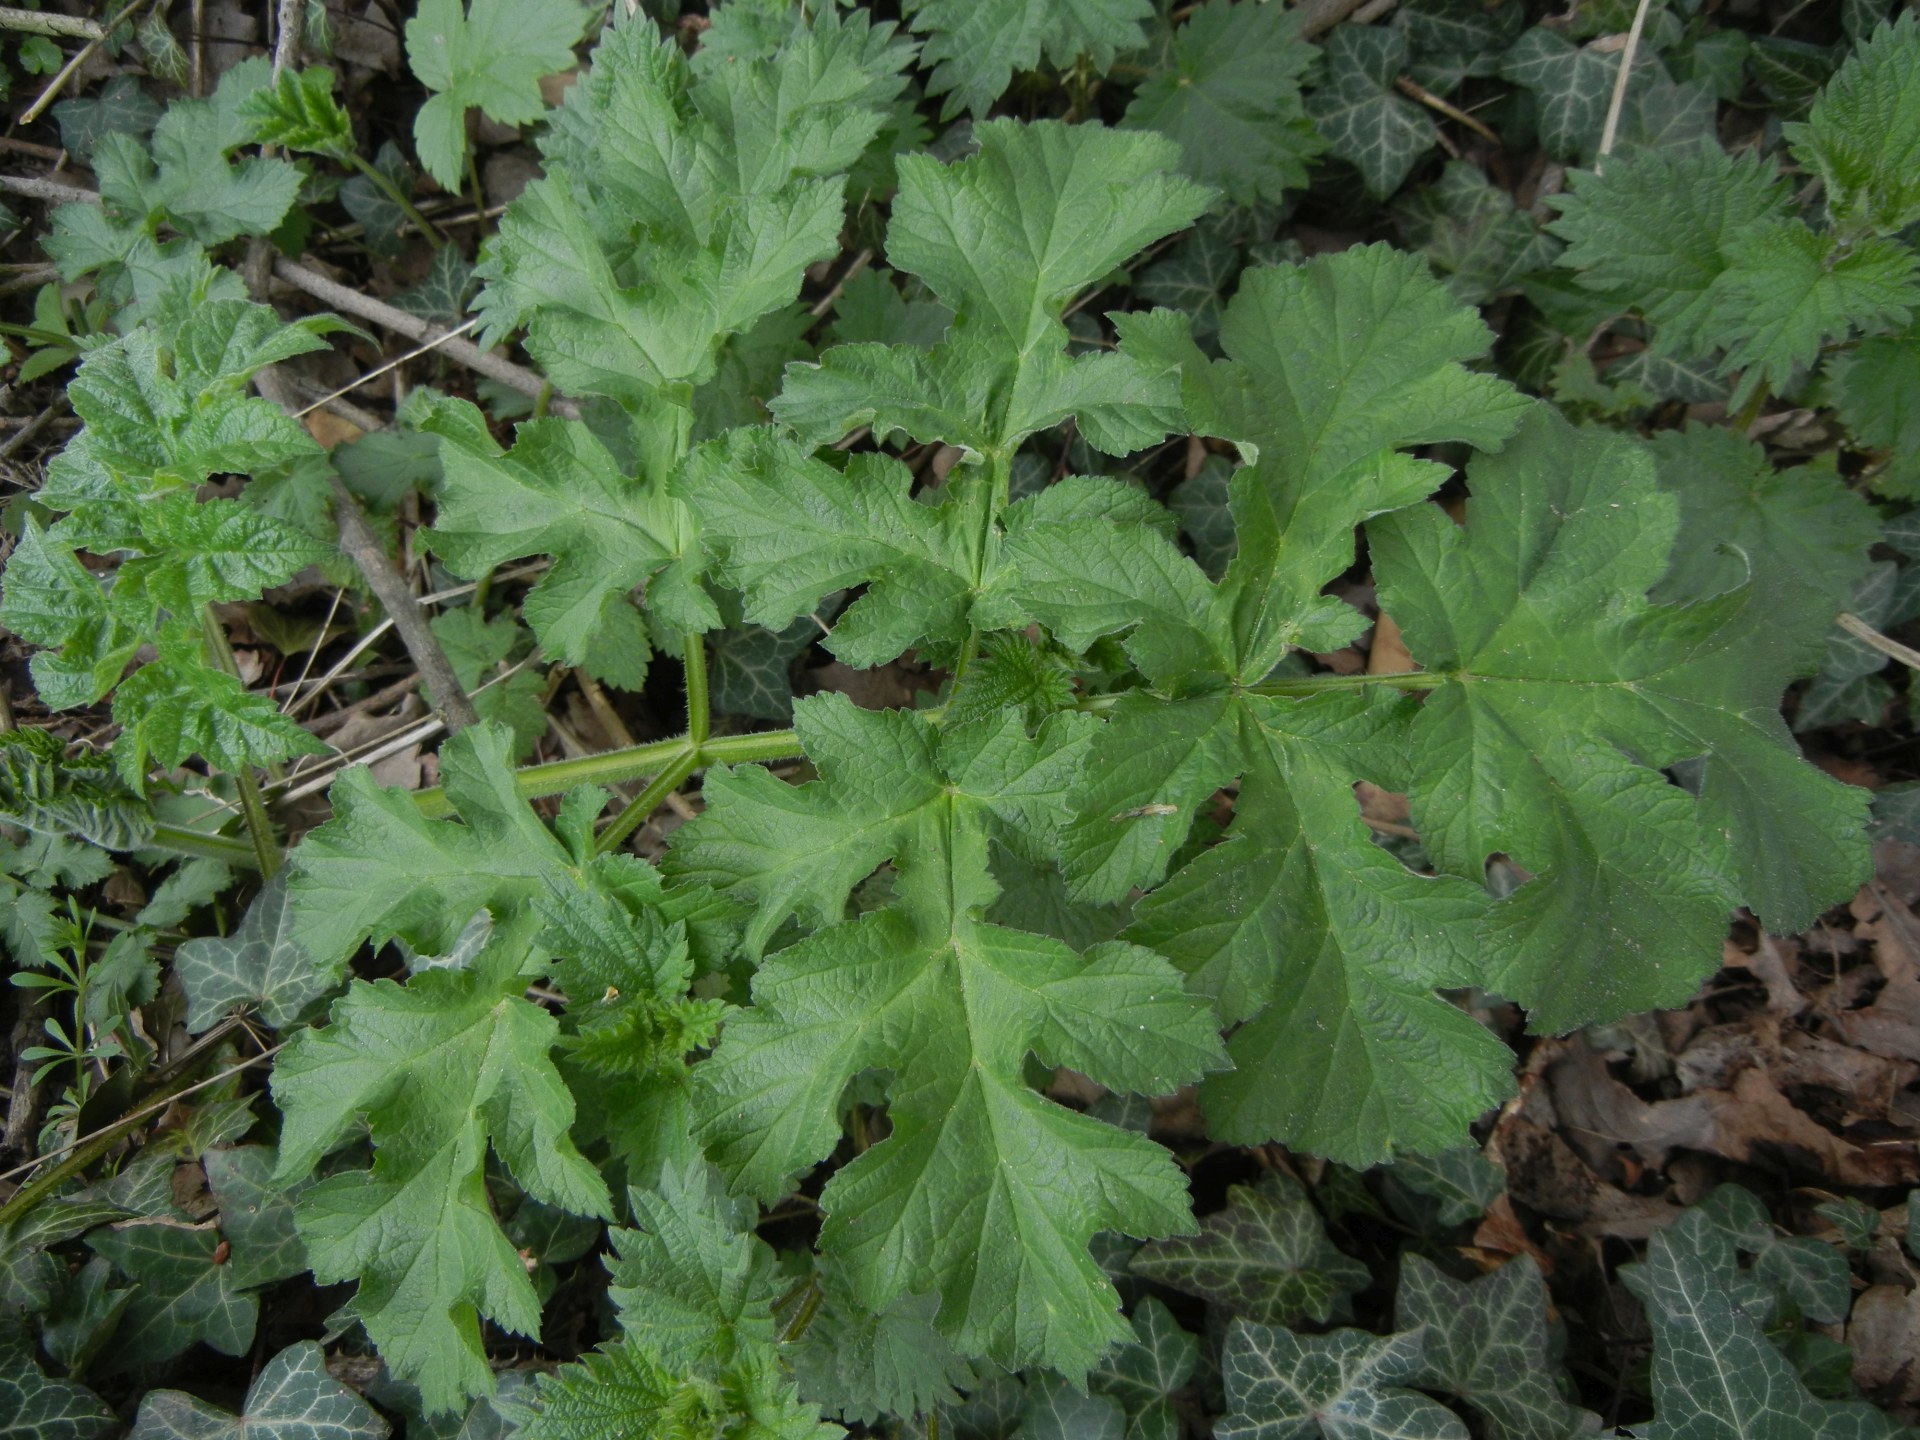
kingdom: Plantae
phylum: Tracheophyta
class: Magnoliopsida
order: Apiales
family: Apiaceae
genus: Heracleum
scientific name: Heracleum sphondylium
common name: Hogweed
